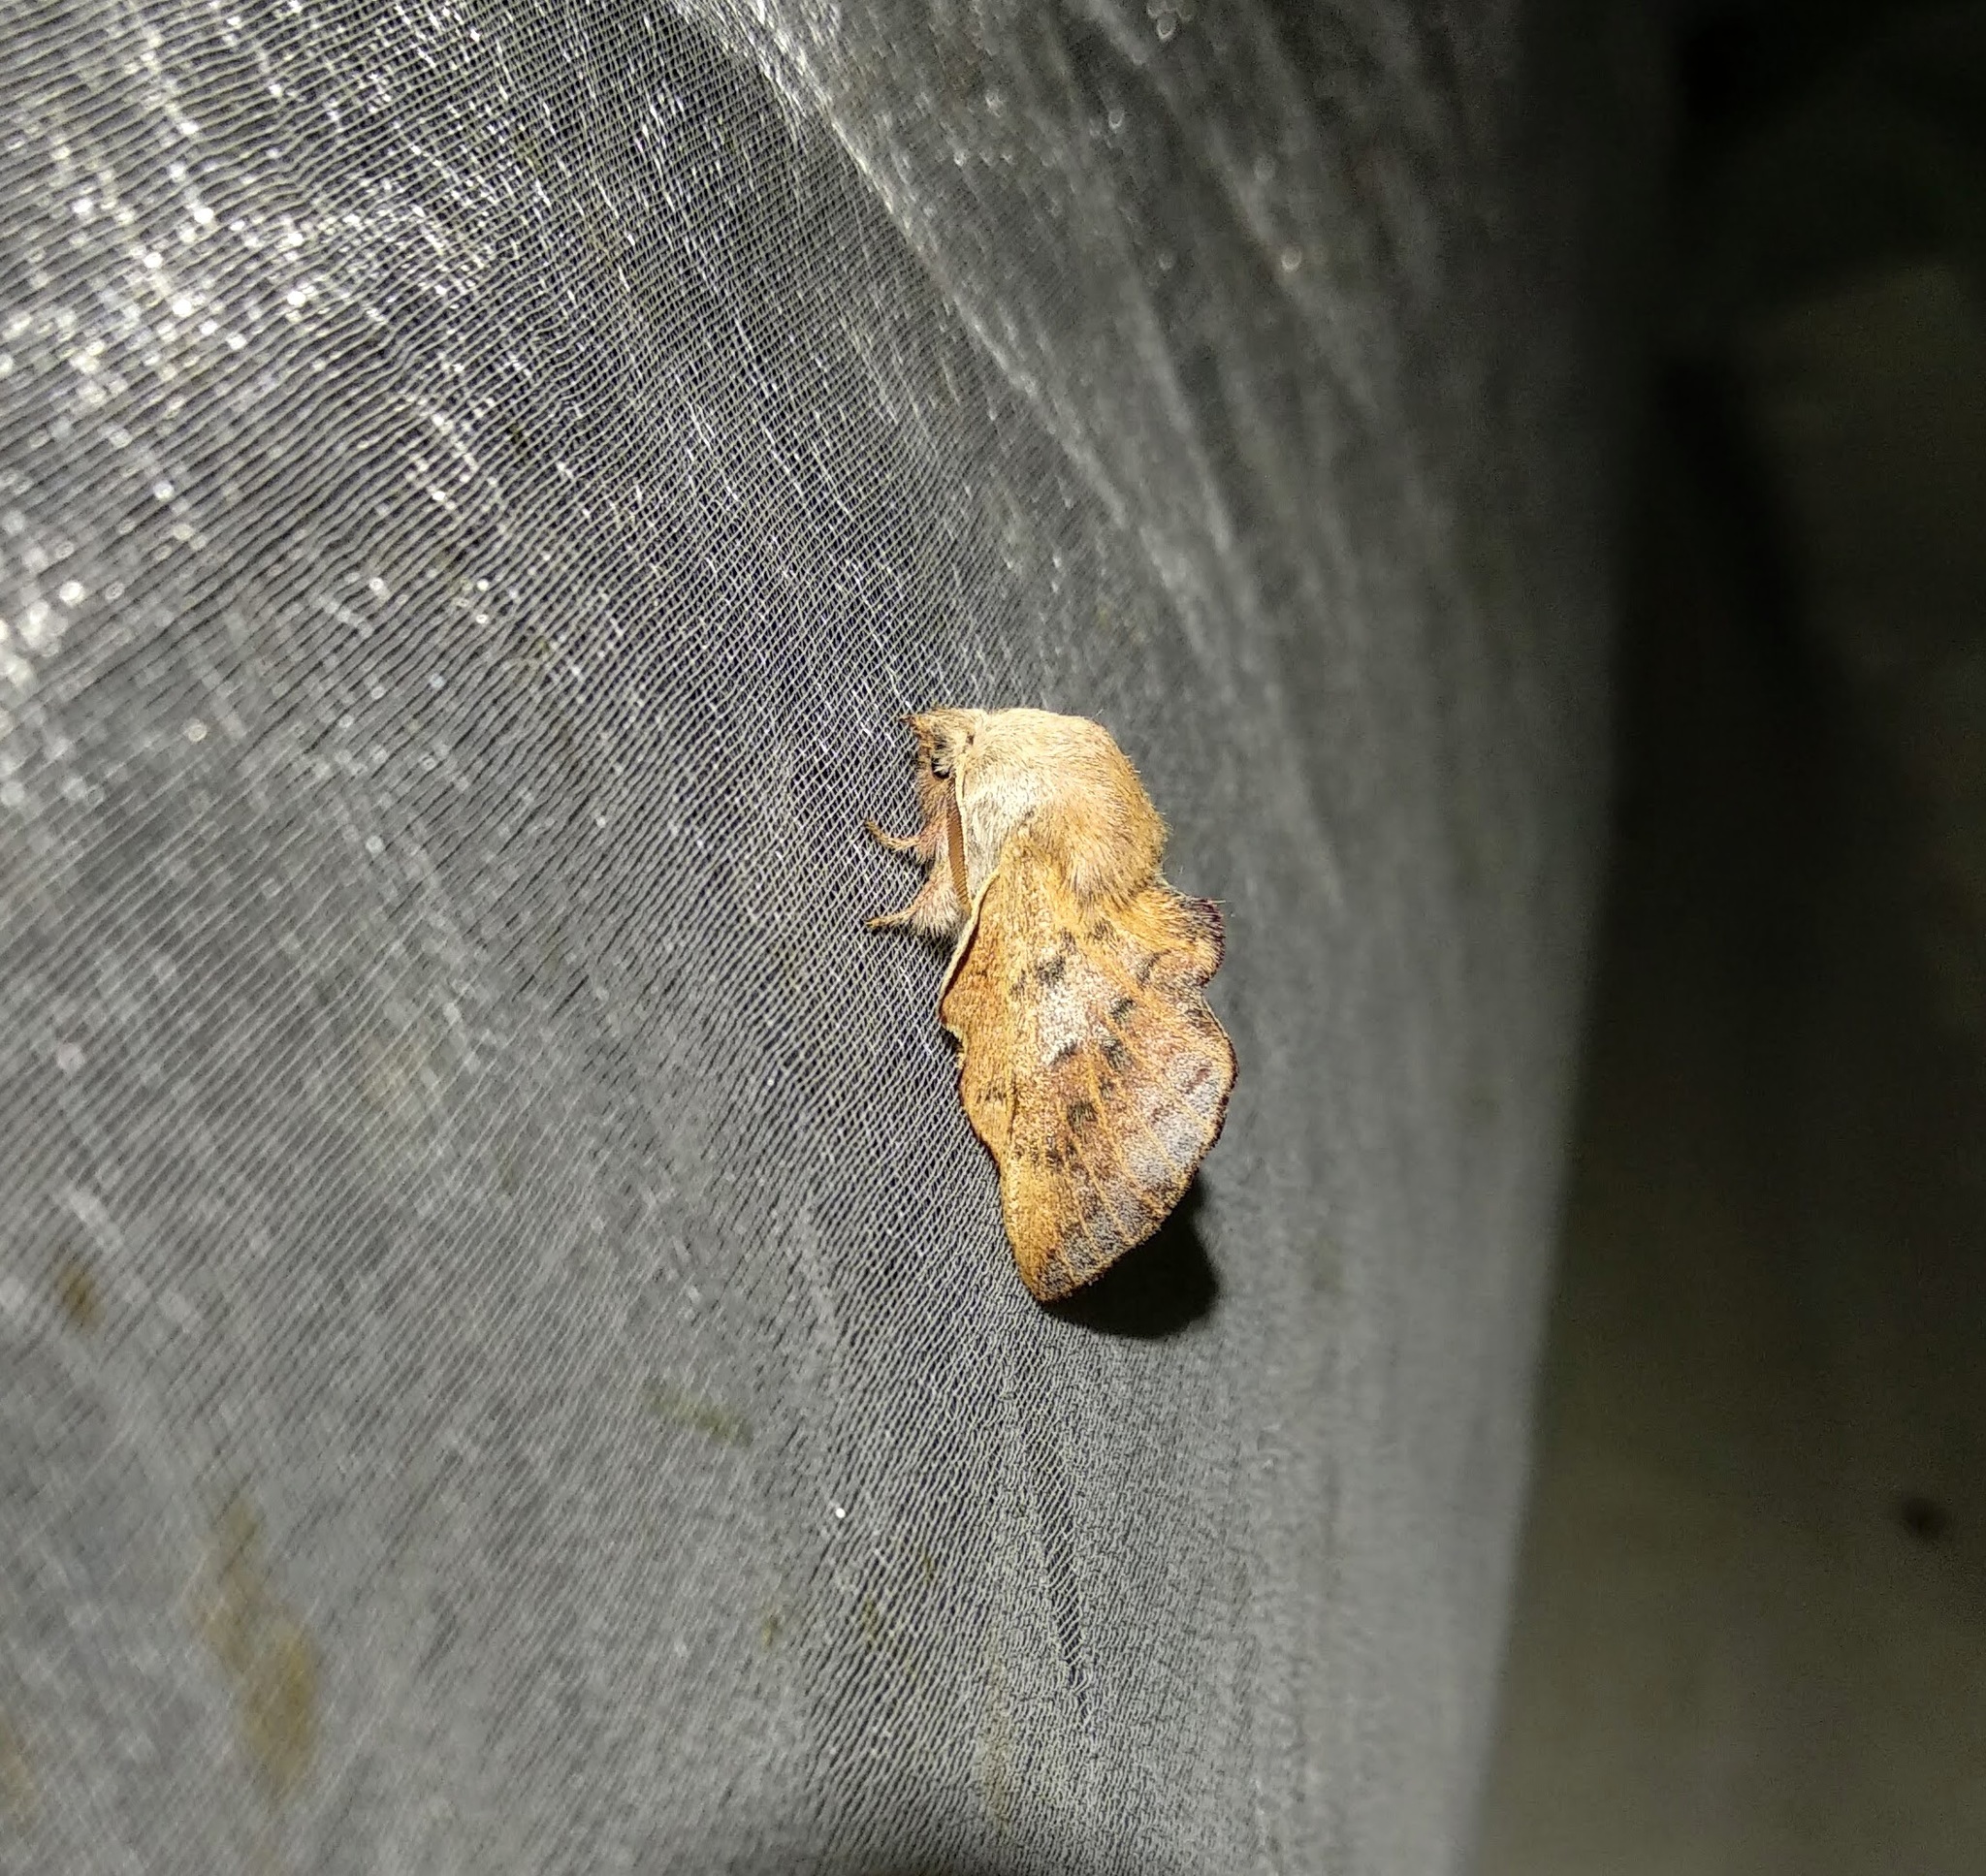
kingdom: Animalia
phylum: Arthropoda
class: Insecta
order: Lepidoptera
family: Lasiocampidae
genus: Phyllodesma
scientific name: Phyllodesma tremulifolia
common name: Aspen lappet
